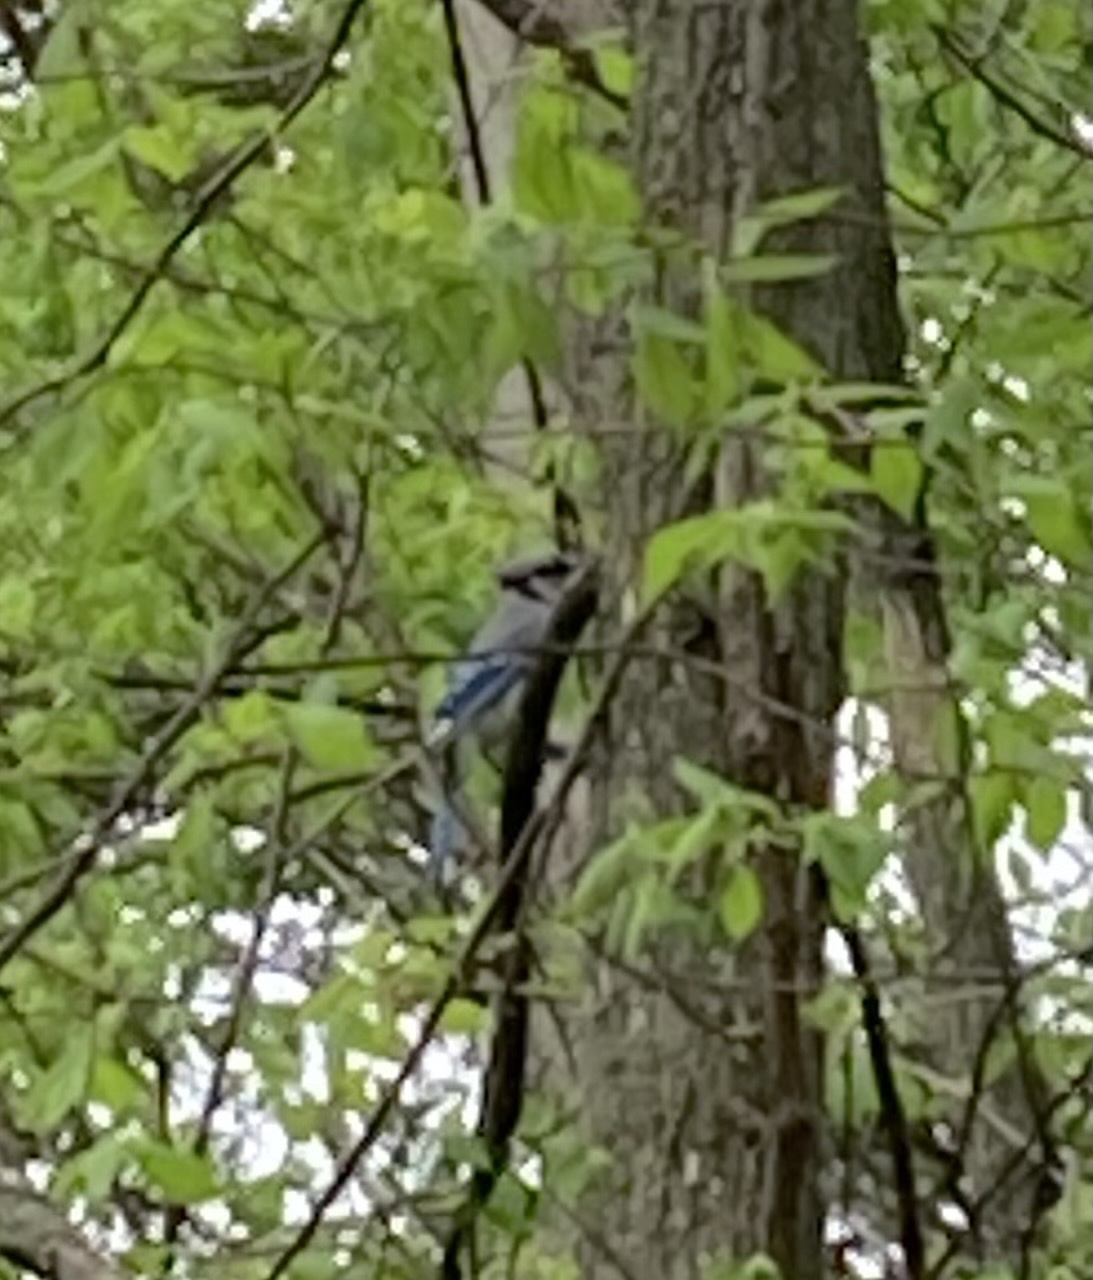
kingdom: Animalia
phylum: Chordata
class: Aves
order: Passeriformes
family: Corvidae
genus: Cyanocitta
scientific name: Cyanocitta cristata
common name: Blue jay
